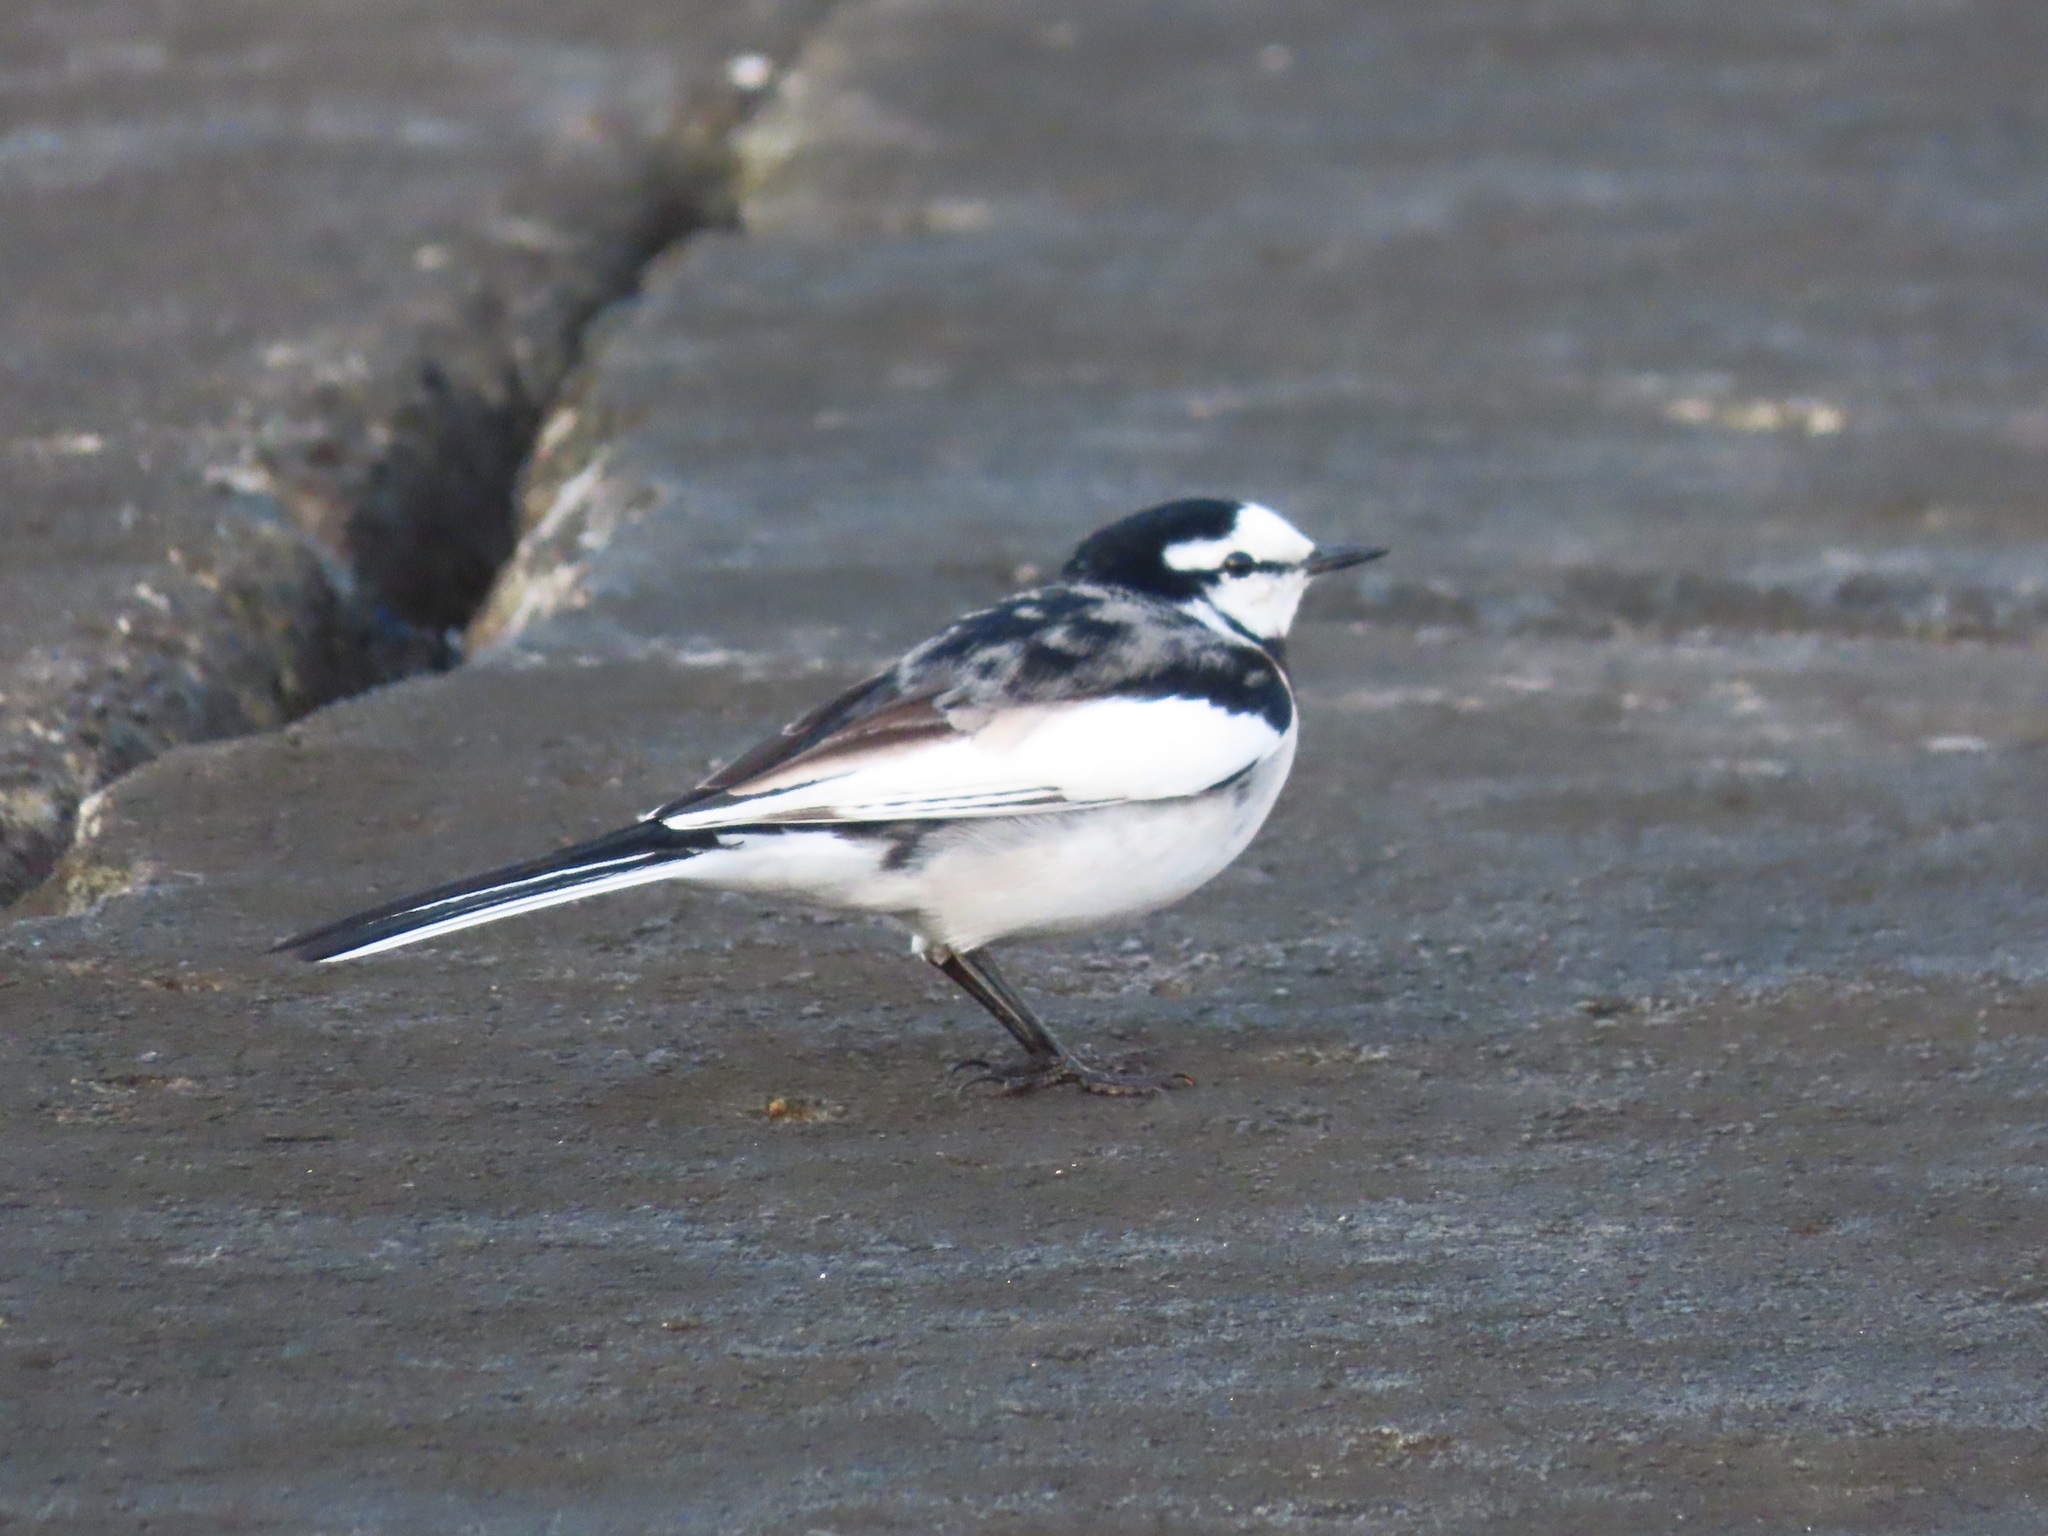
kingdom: Animalia
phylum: Chordata
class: Aves
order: Passeriformes
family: Motacillidae
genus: Motacilla
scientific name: Motacilla alba
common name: White wagtail
